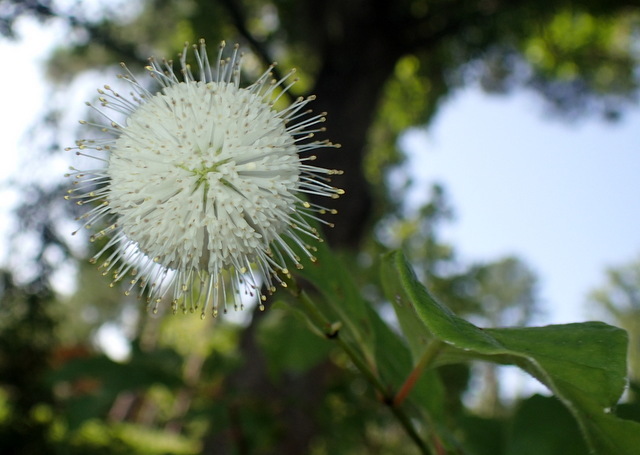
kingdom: Plantae
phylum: Tracheophyta
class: Magnoliopsida
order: Gentianales
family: Rubiaceae
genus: Cephalanthus
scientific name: Cephalanthus occidentalis
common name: Button-willow
